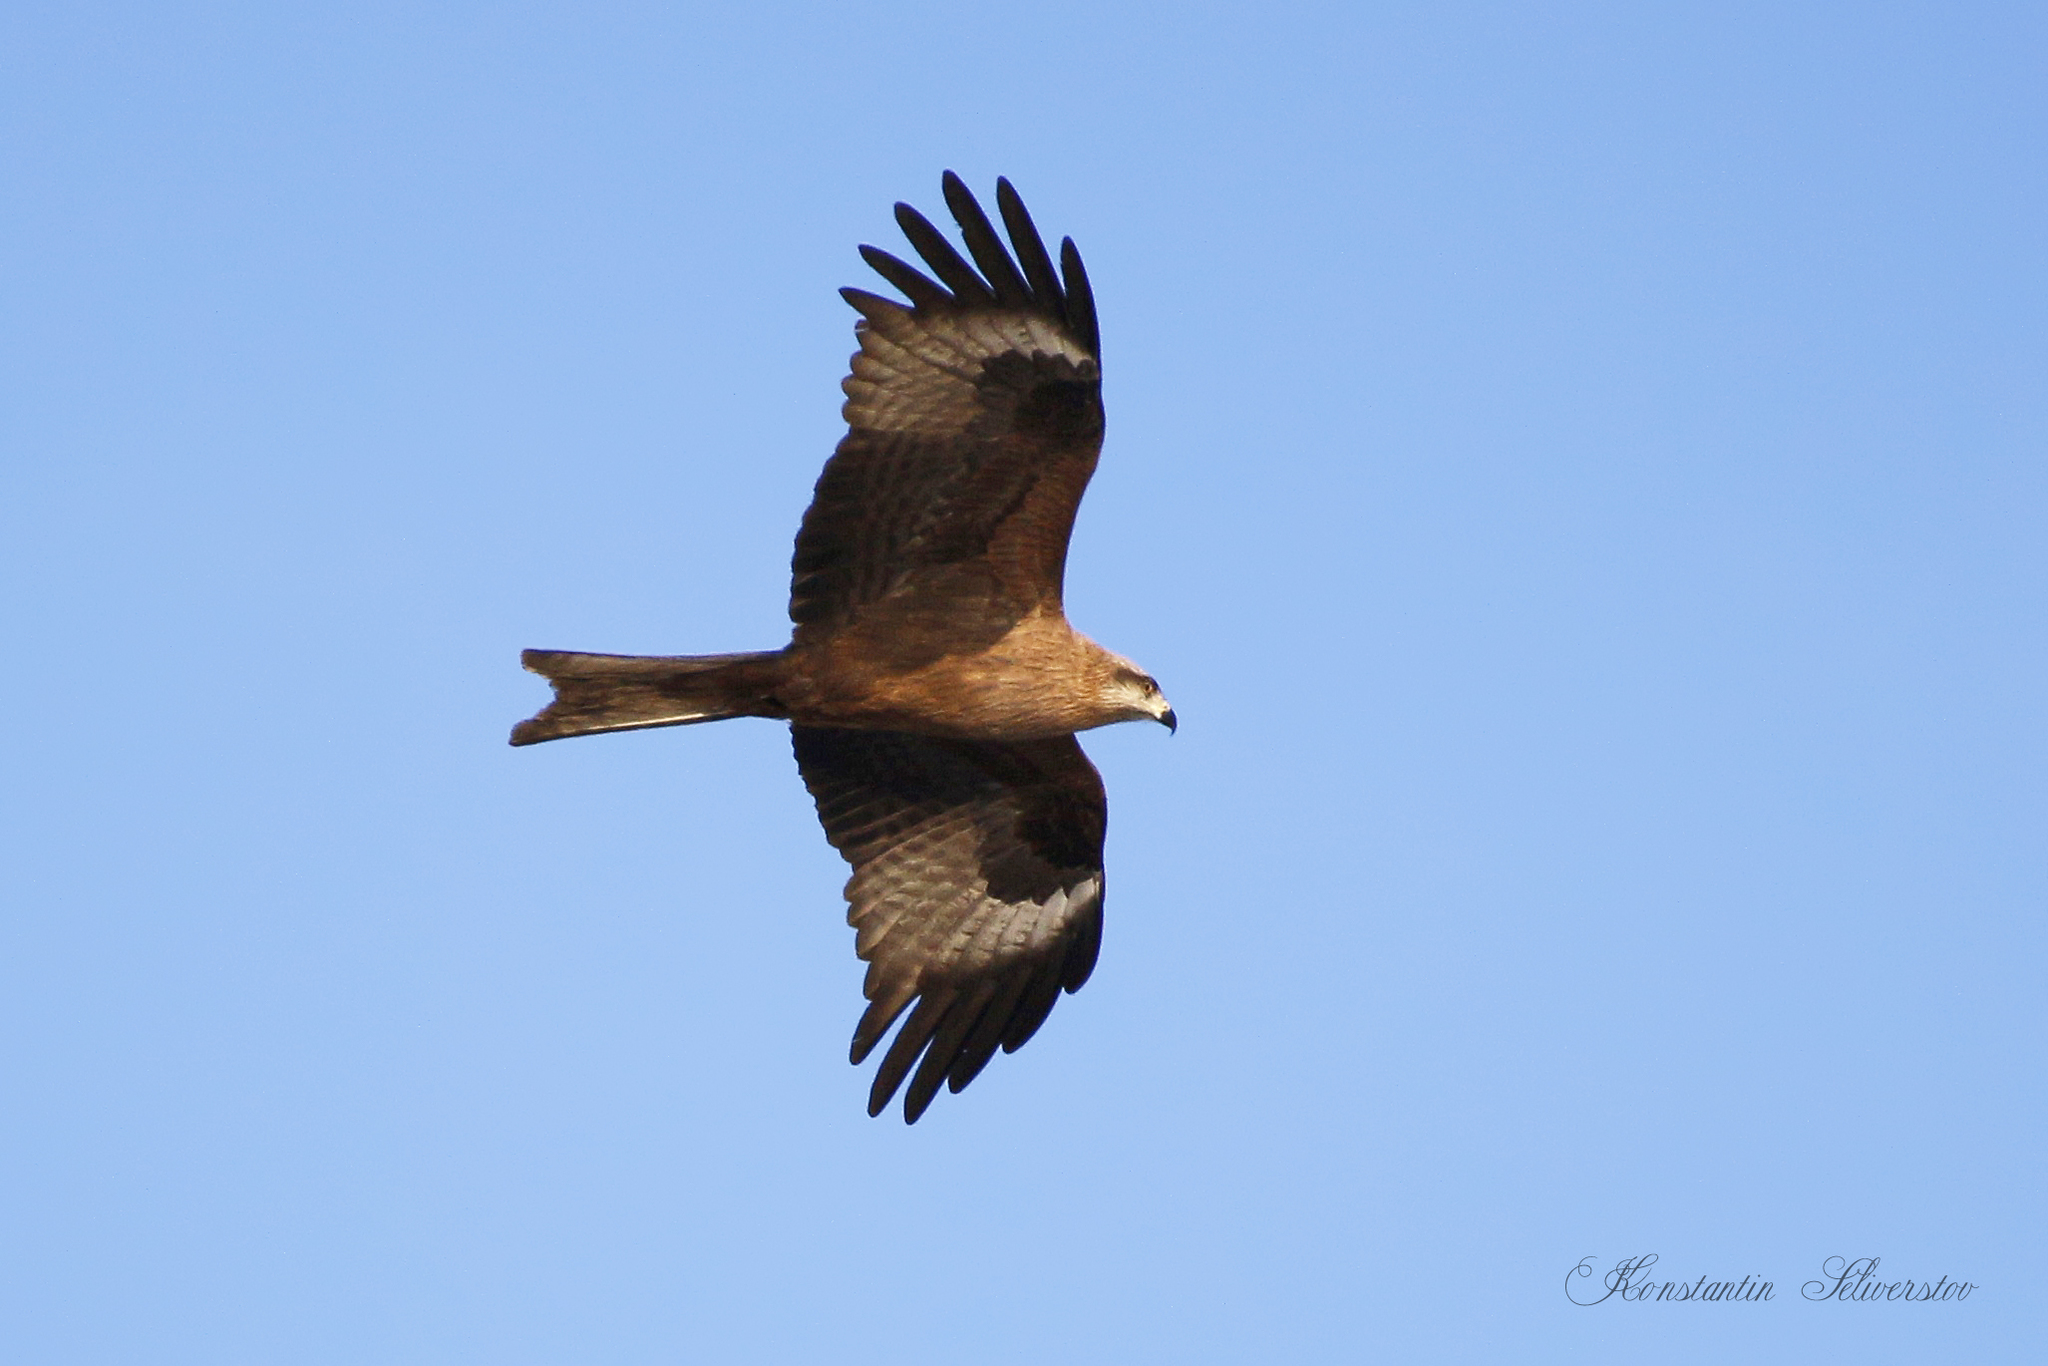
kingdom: Animalia
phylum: Chordata
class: Aves
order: Accipitriformes
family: Accipitridae
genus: Milvus
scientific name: Milvus migrans
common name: Black kite
